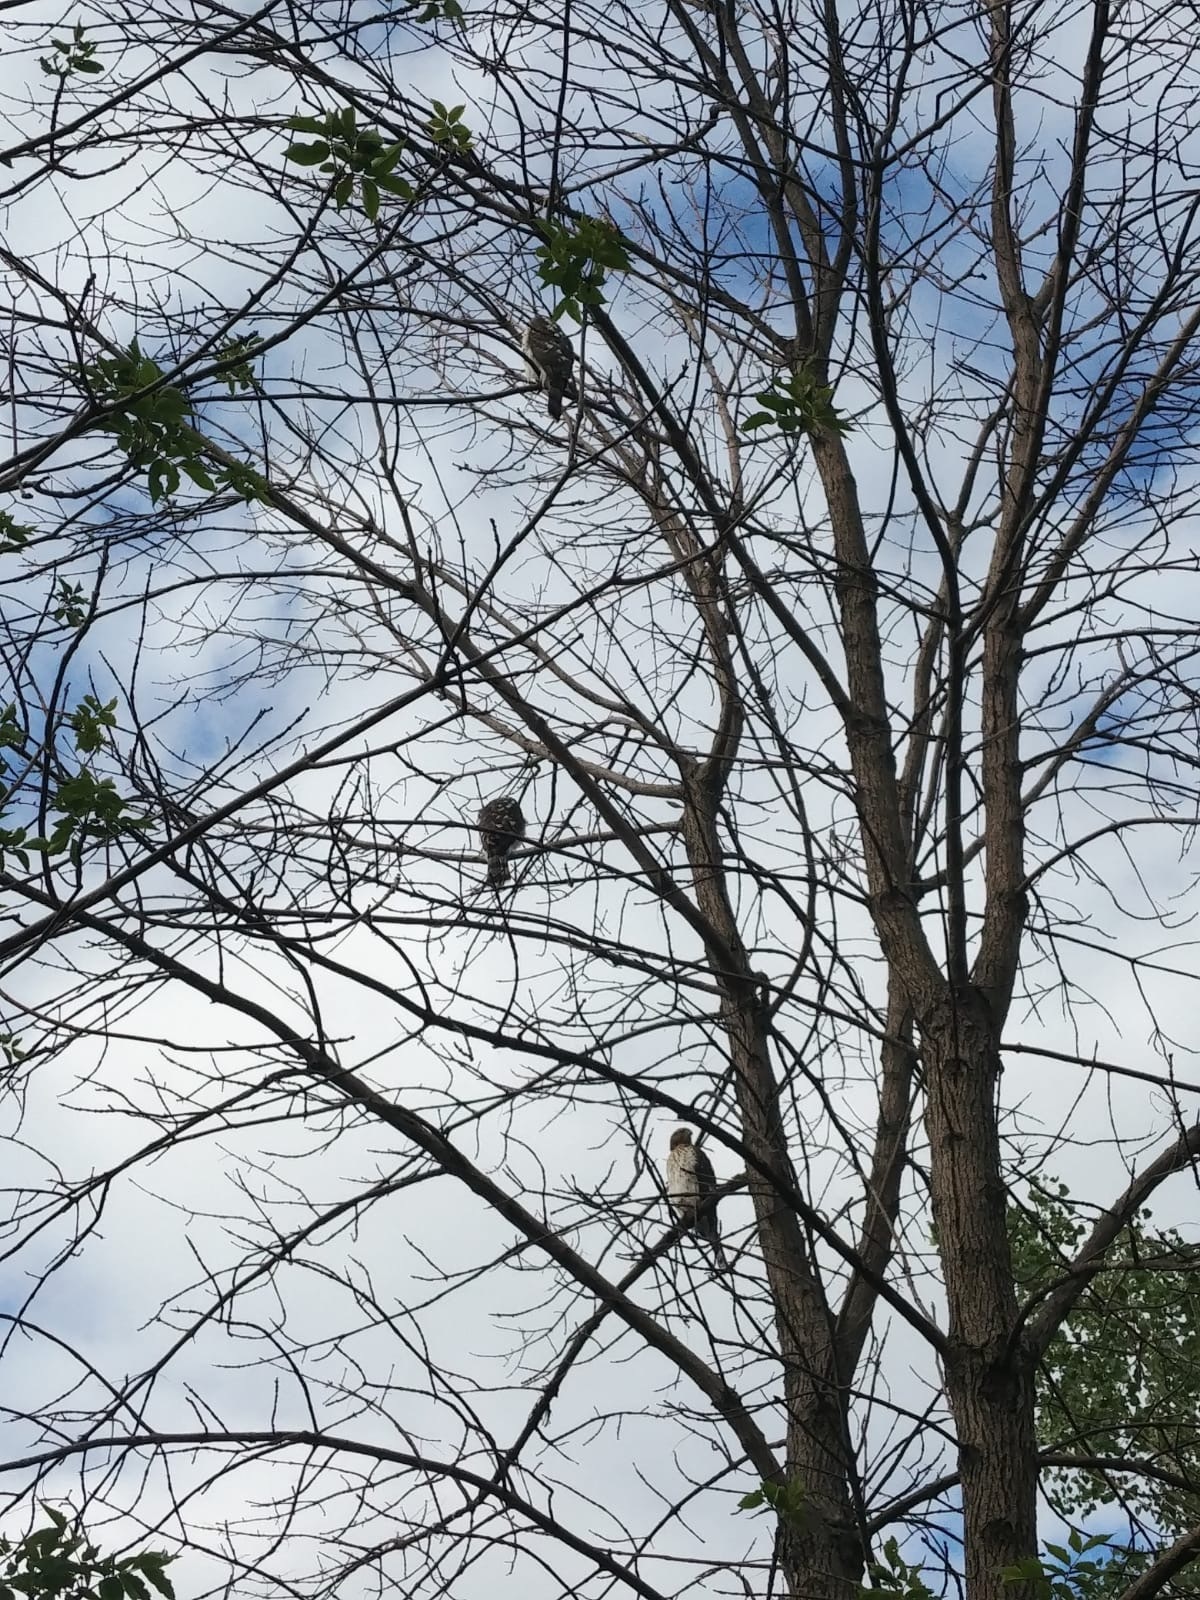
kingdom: Animalia
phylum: Chordata
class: Aves
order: Accipitriformes
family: Accipitridae
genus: Accipiter
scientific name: Accipiter cooperii
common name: Cooper's hawk
